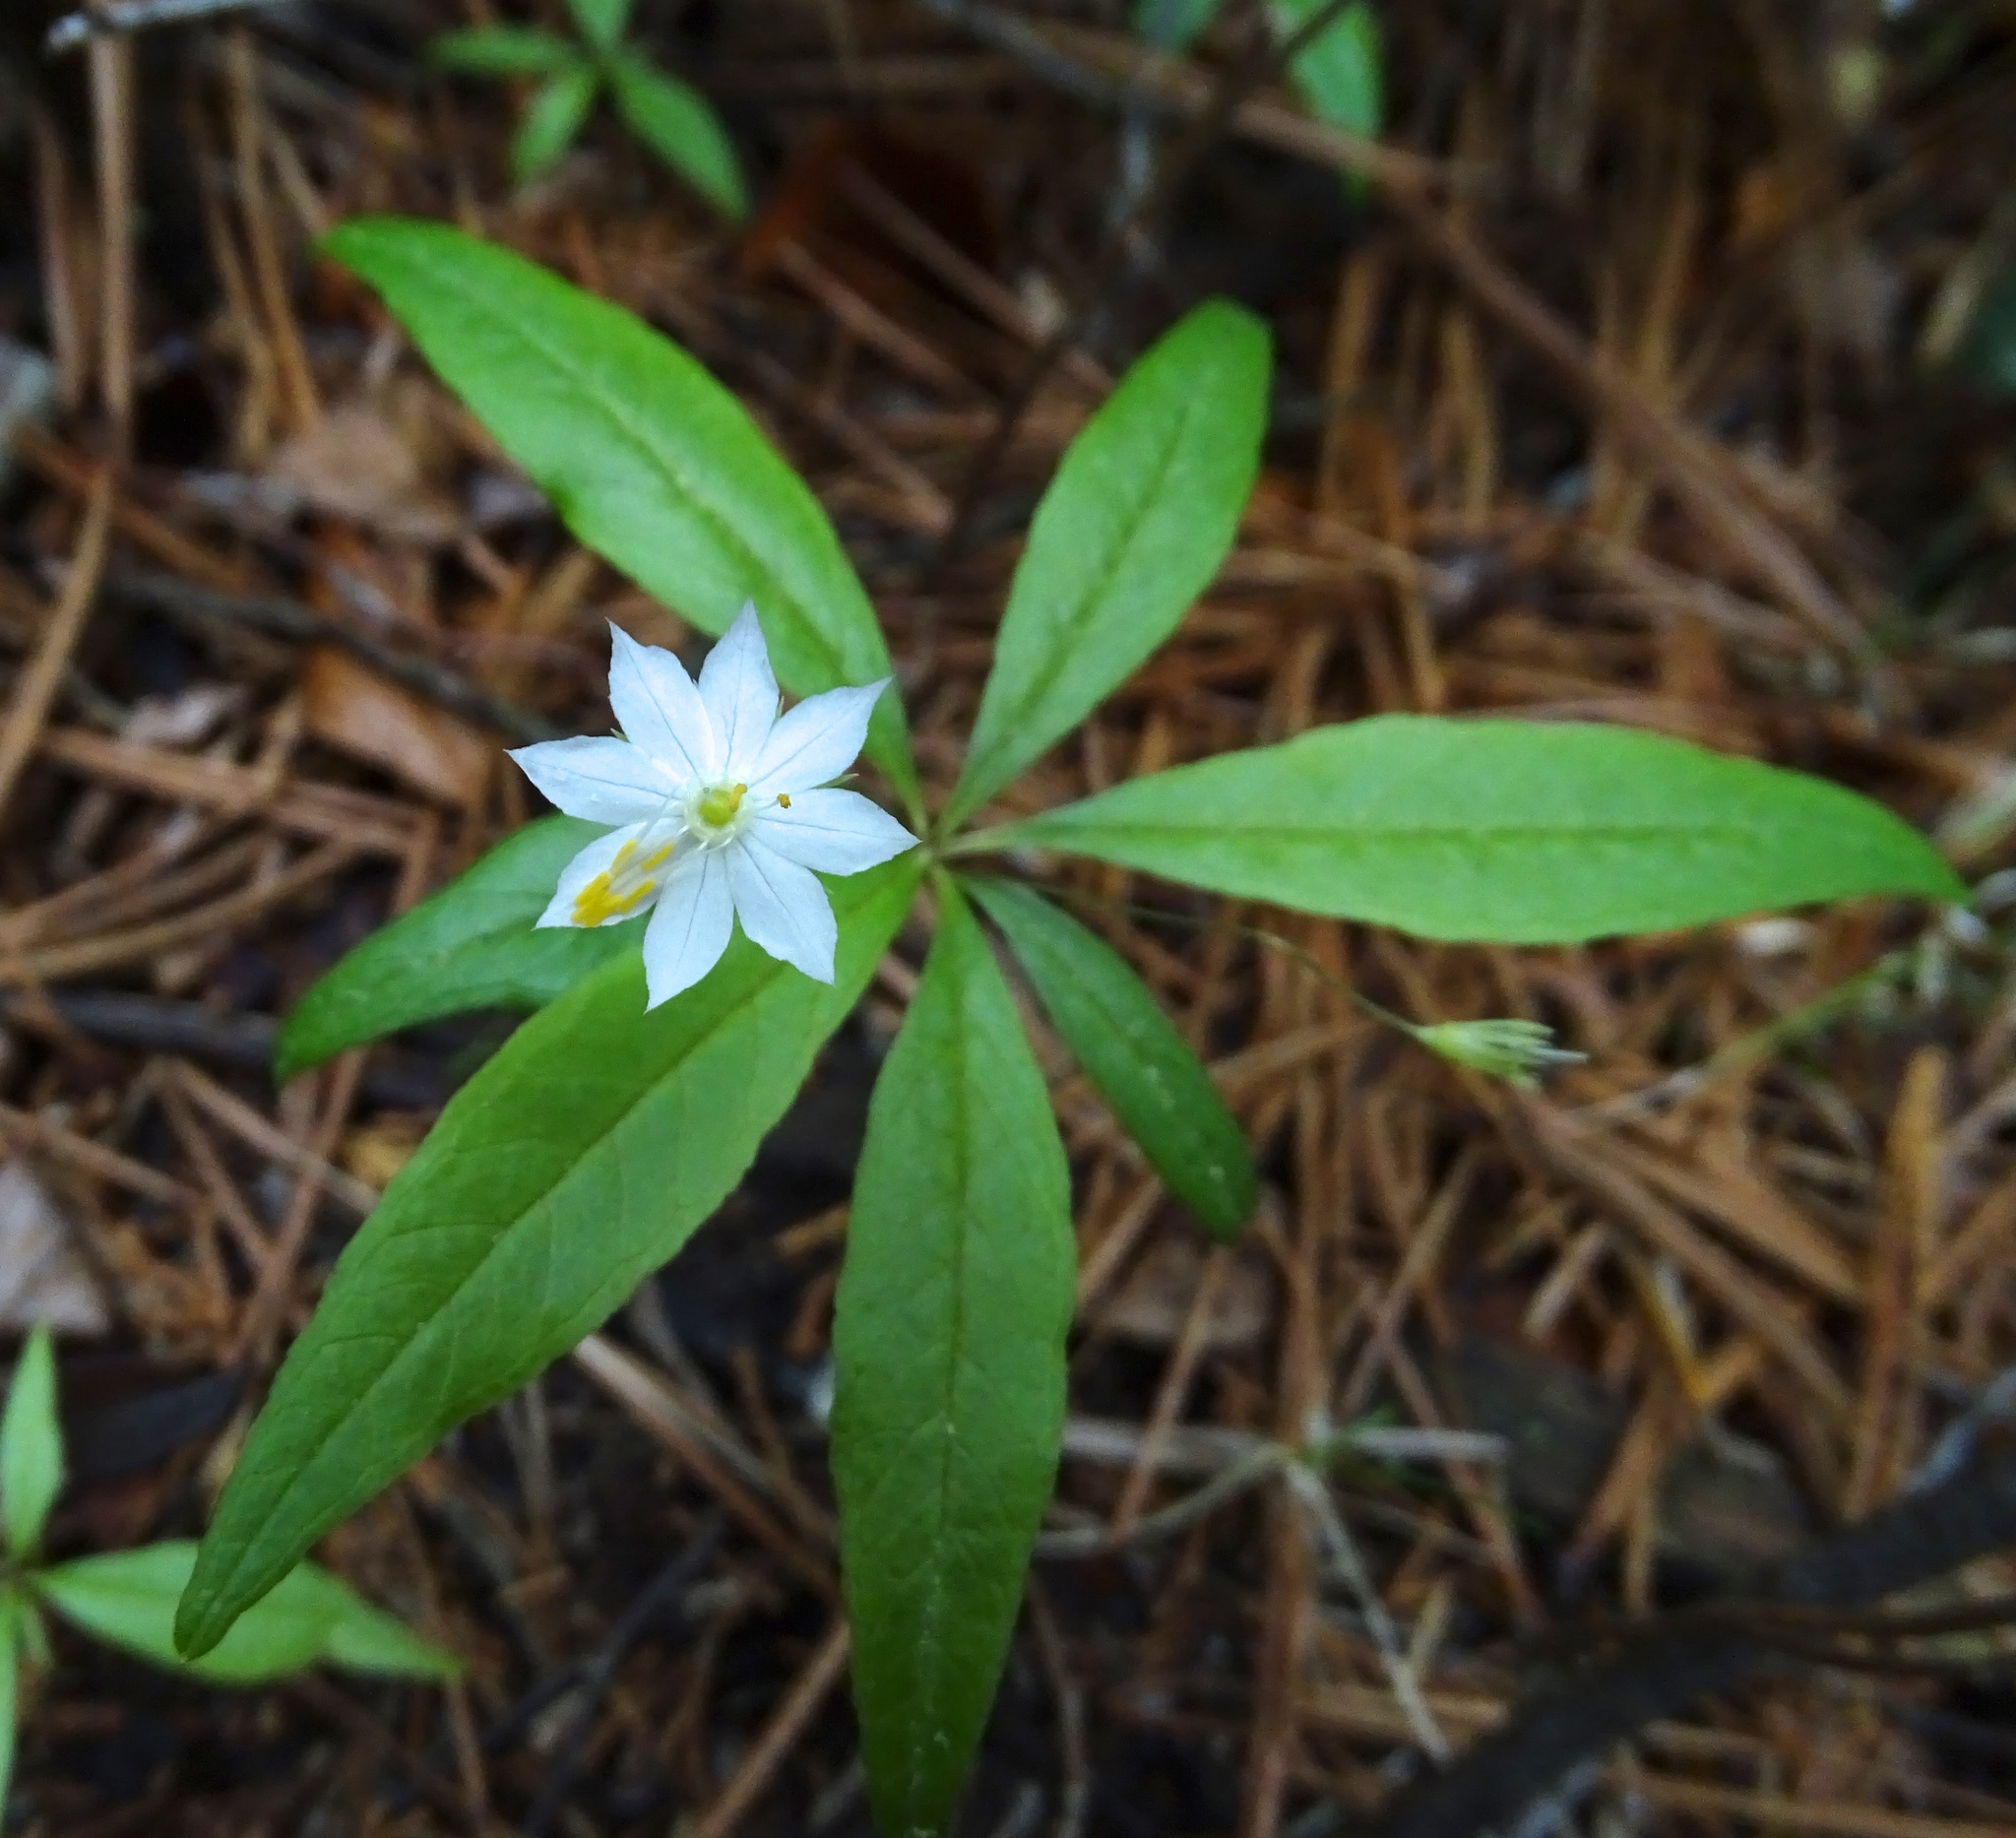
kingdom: Plantae
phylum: Tracheophyta
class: Magnoliopsida
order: Ericales
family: Primulaceae
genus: Lysimachia
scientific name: Lysimachia borealis
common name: American starflower
